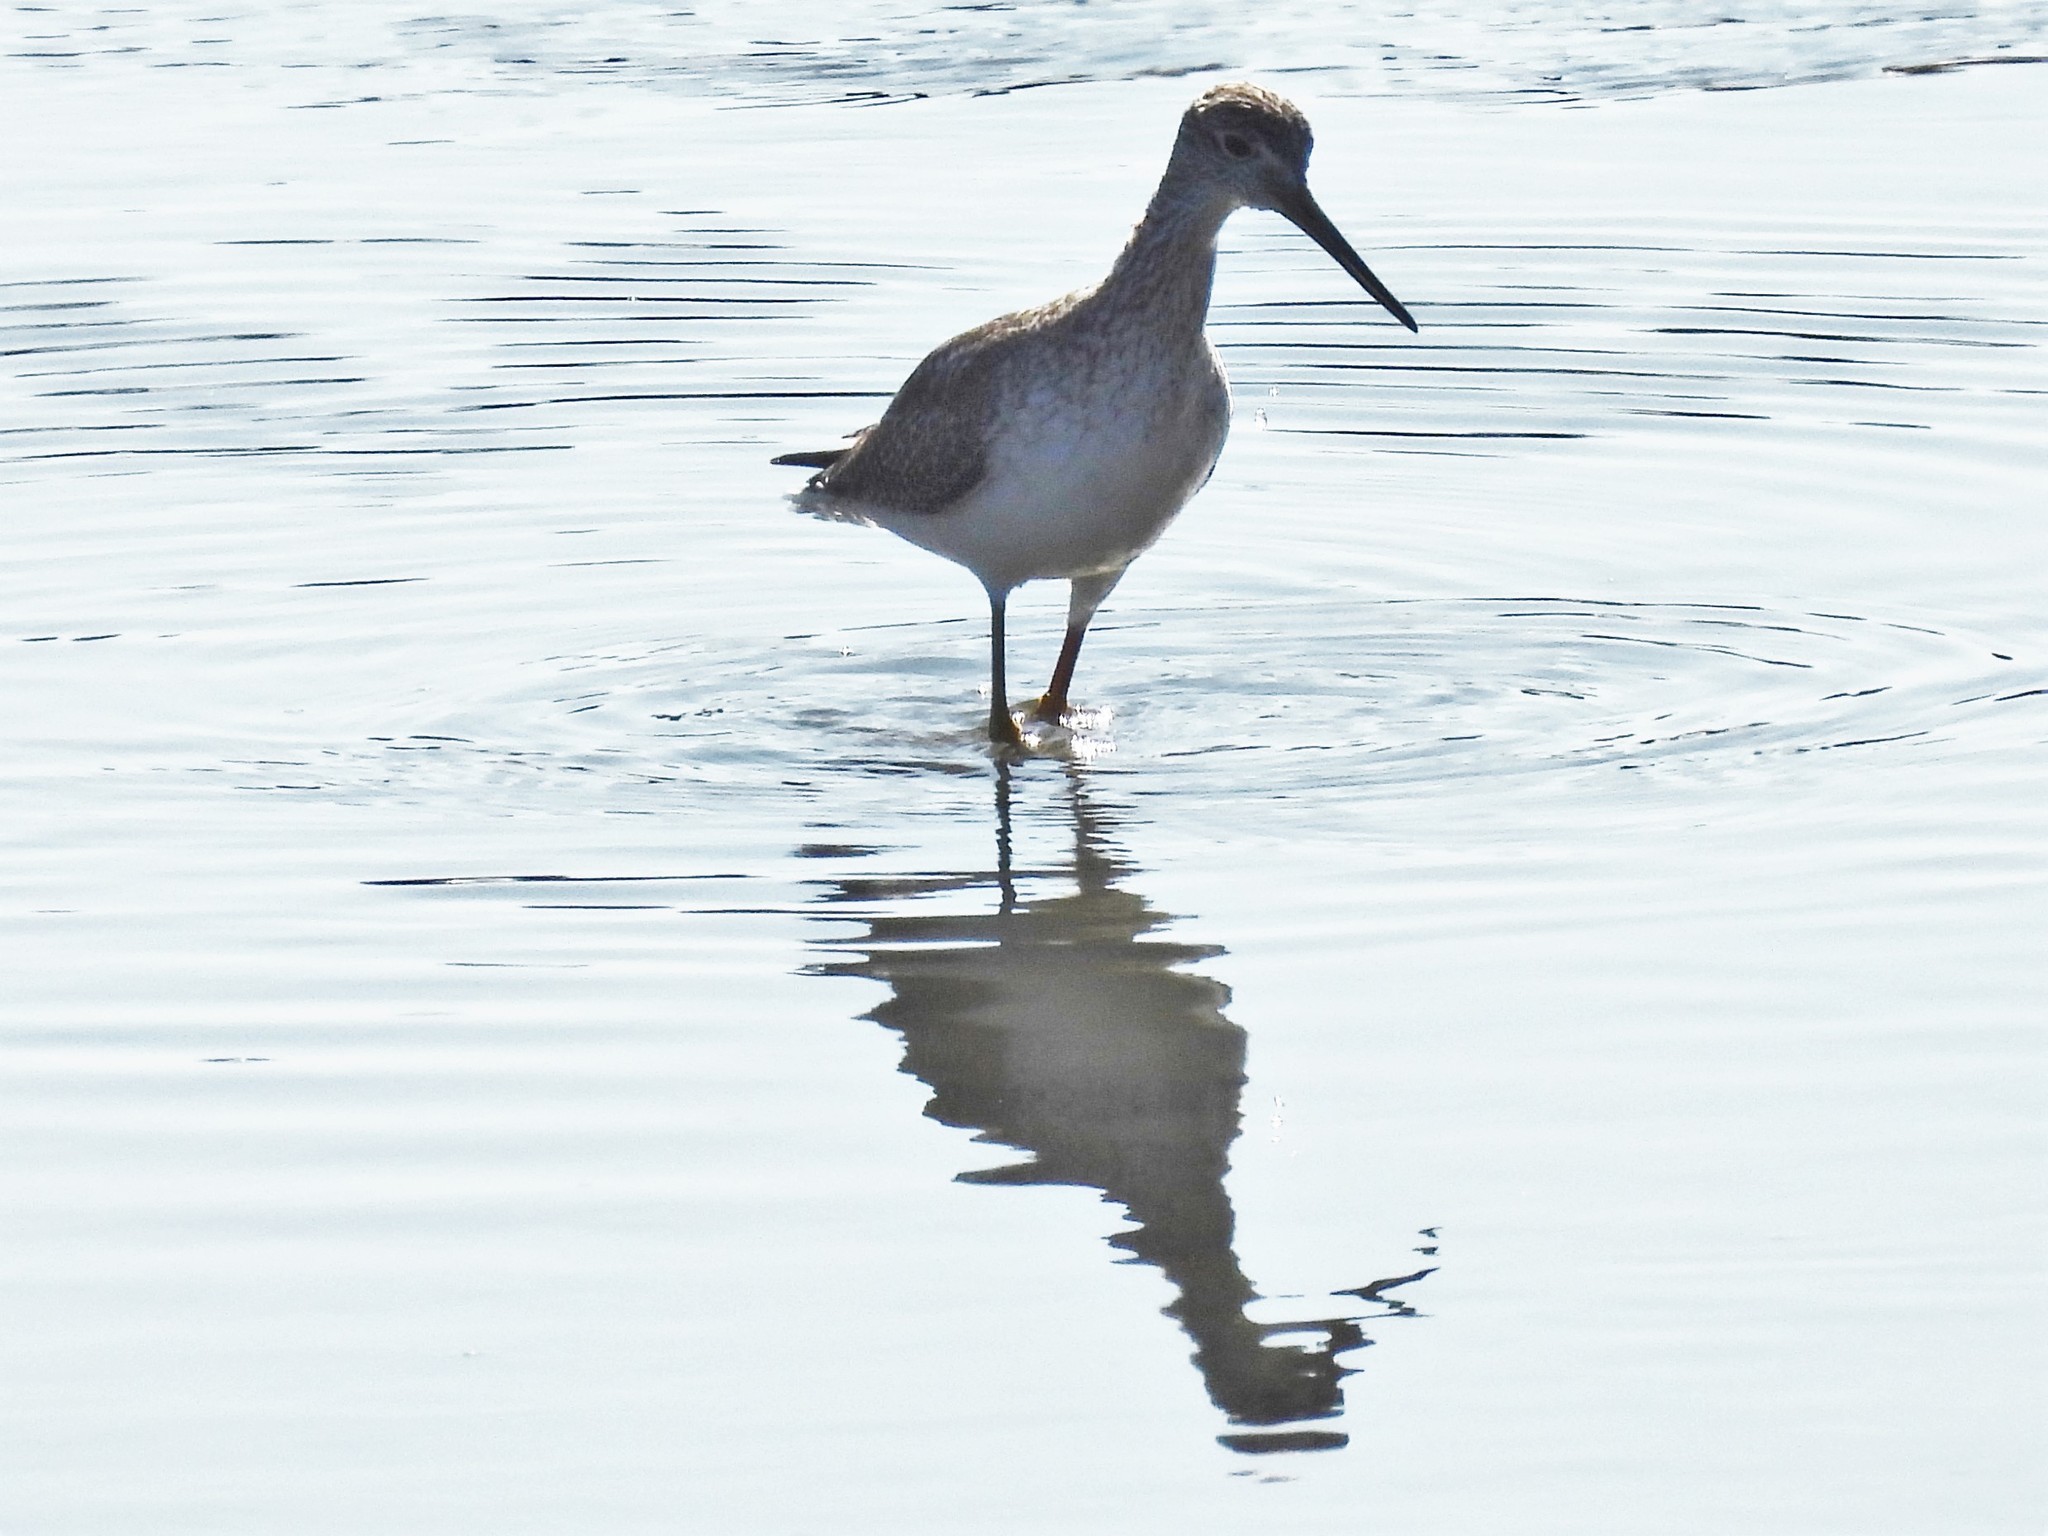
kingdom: Animalia
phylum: Chordata
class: Aves
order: Charadriiformes
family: Scolopacidae
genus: Tringa
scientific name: Tringa melanoleuca
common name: Greater yellowlegs
